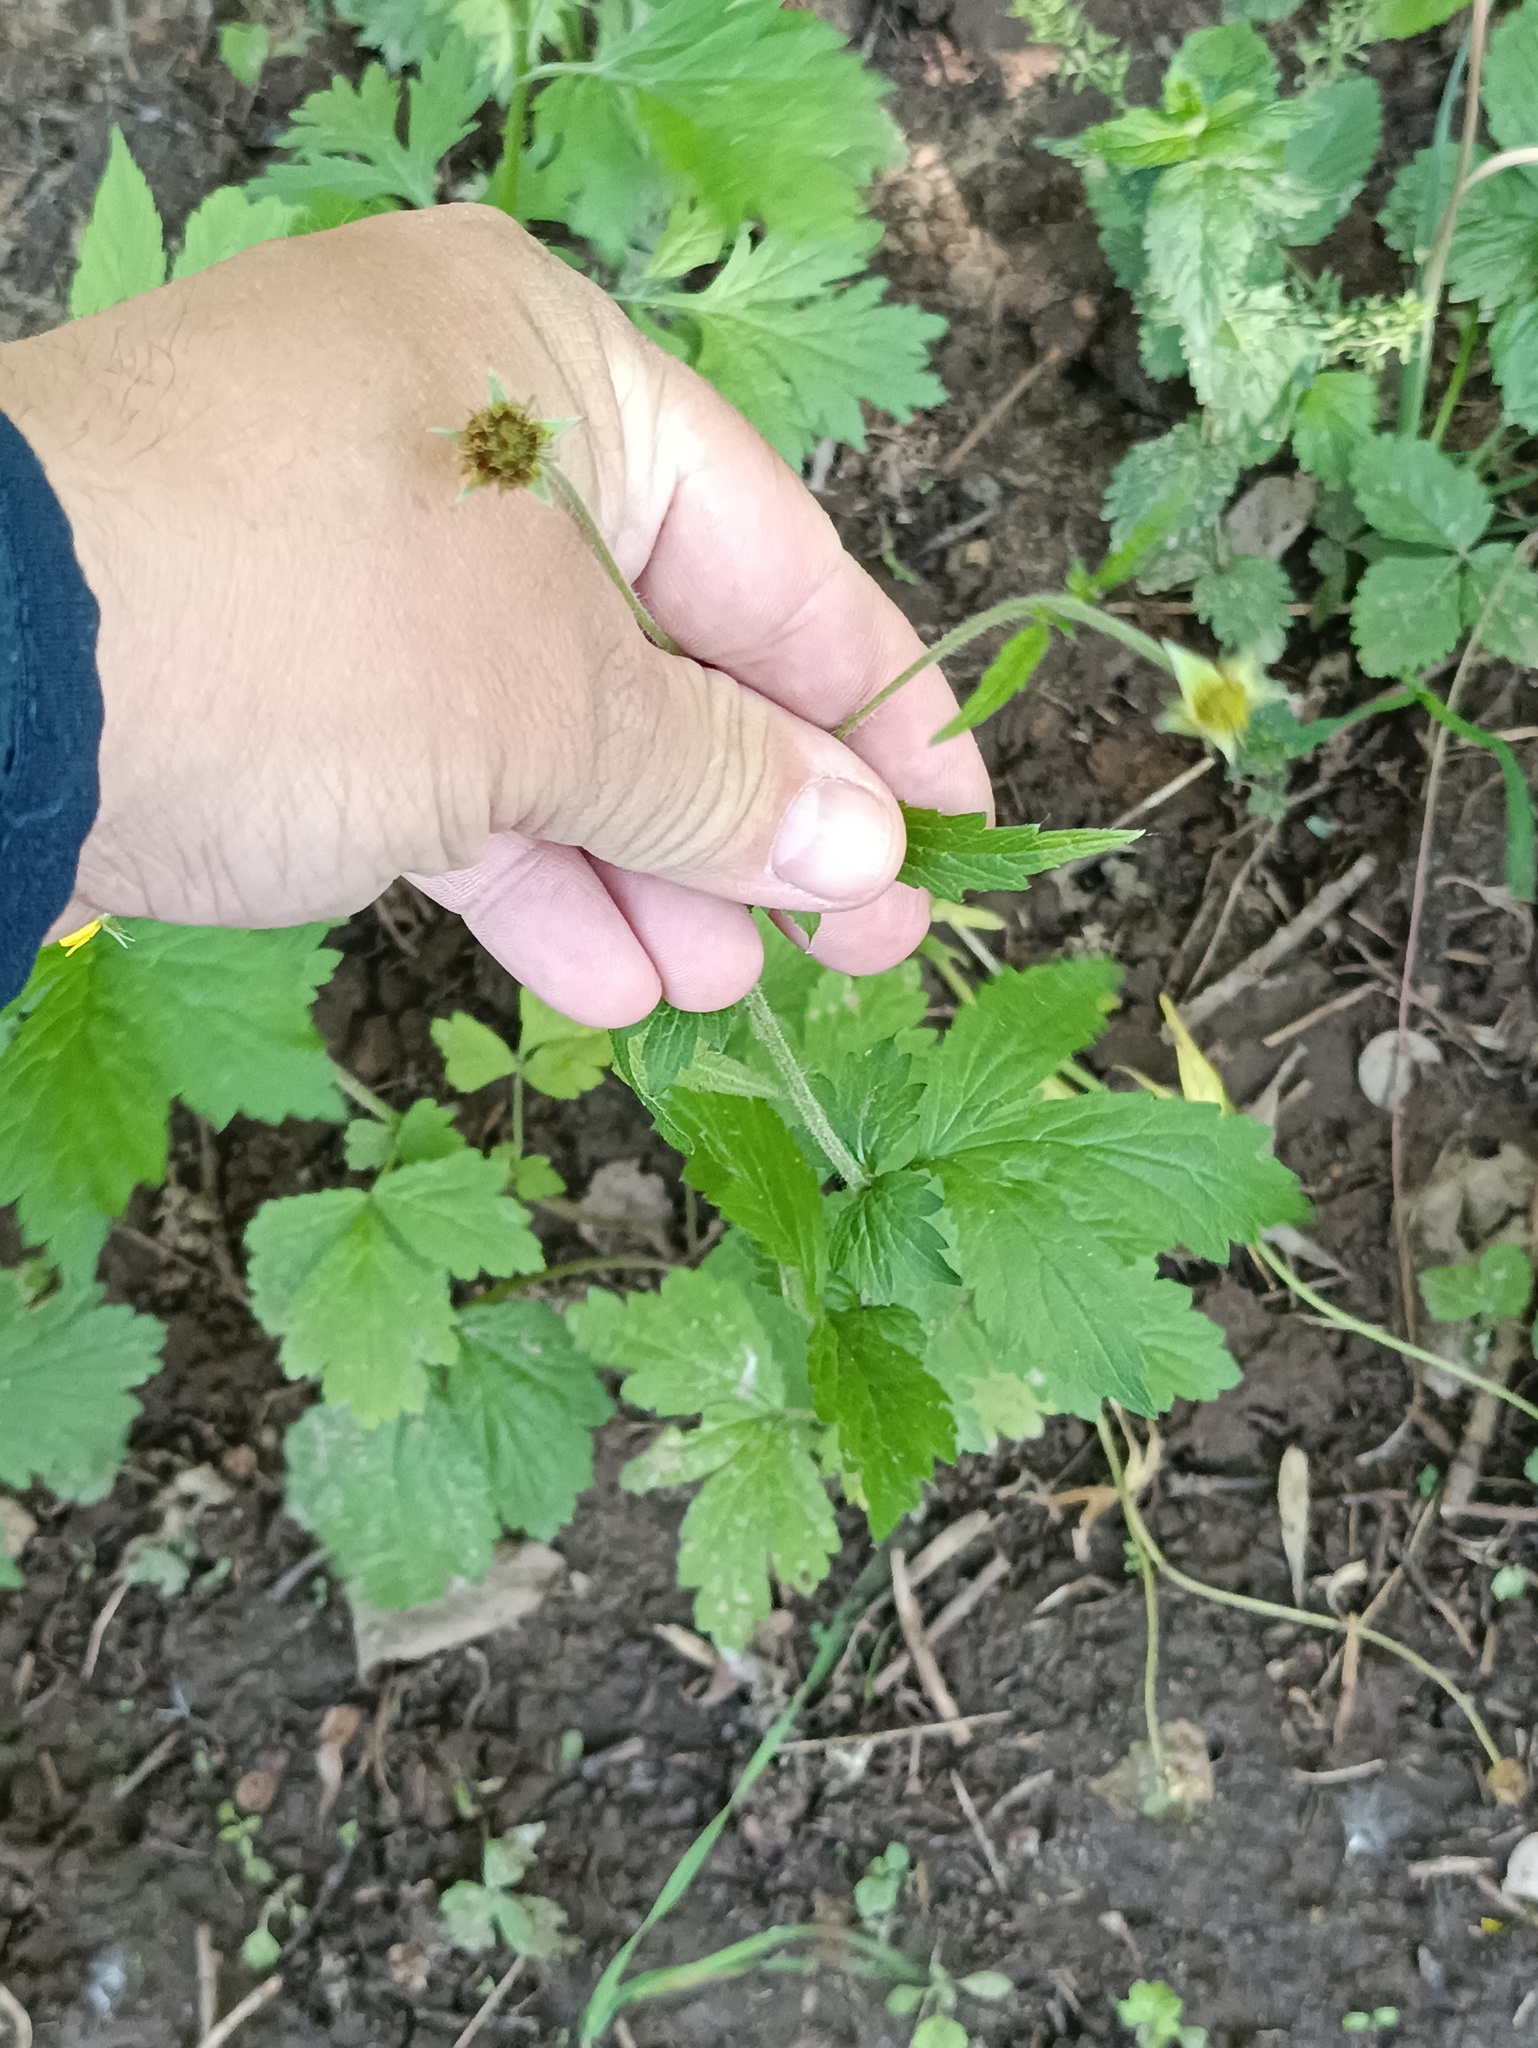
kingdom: Plantae
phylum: Tracheophyta
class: Magnoliopsida
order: Rosales
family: Rosaceae
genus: Geum
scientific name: Geum urbanum
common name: Wood avens
